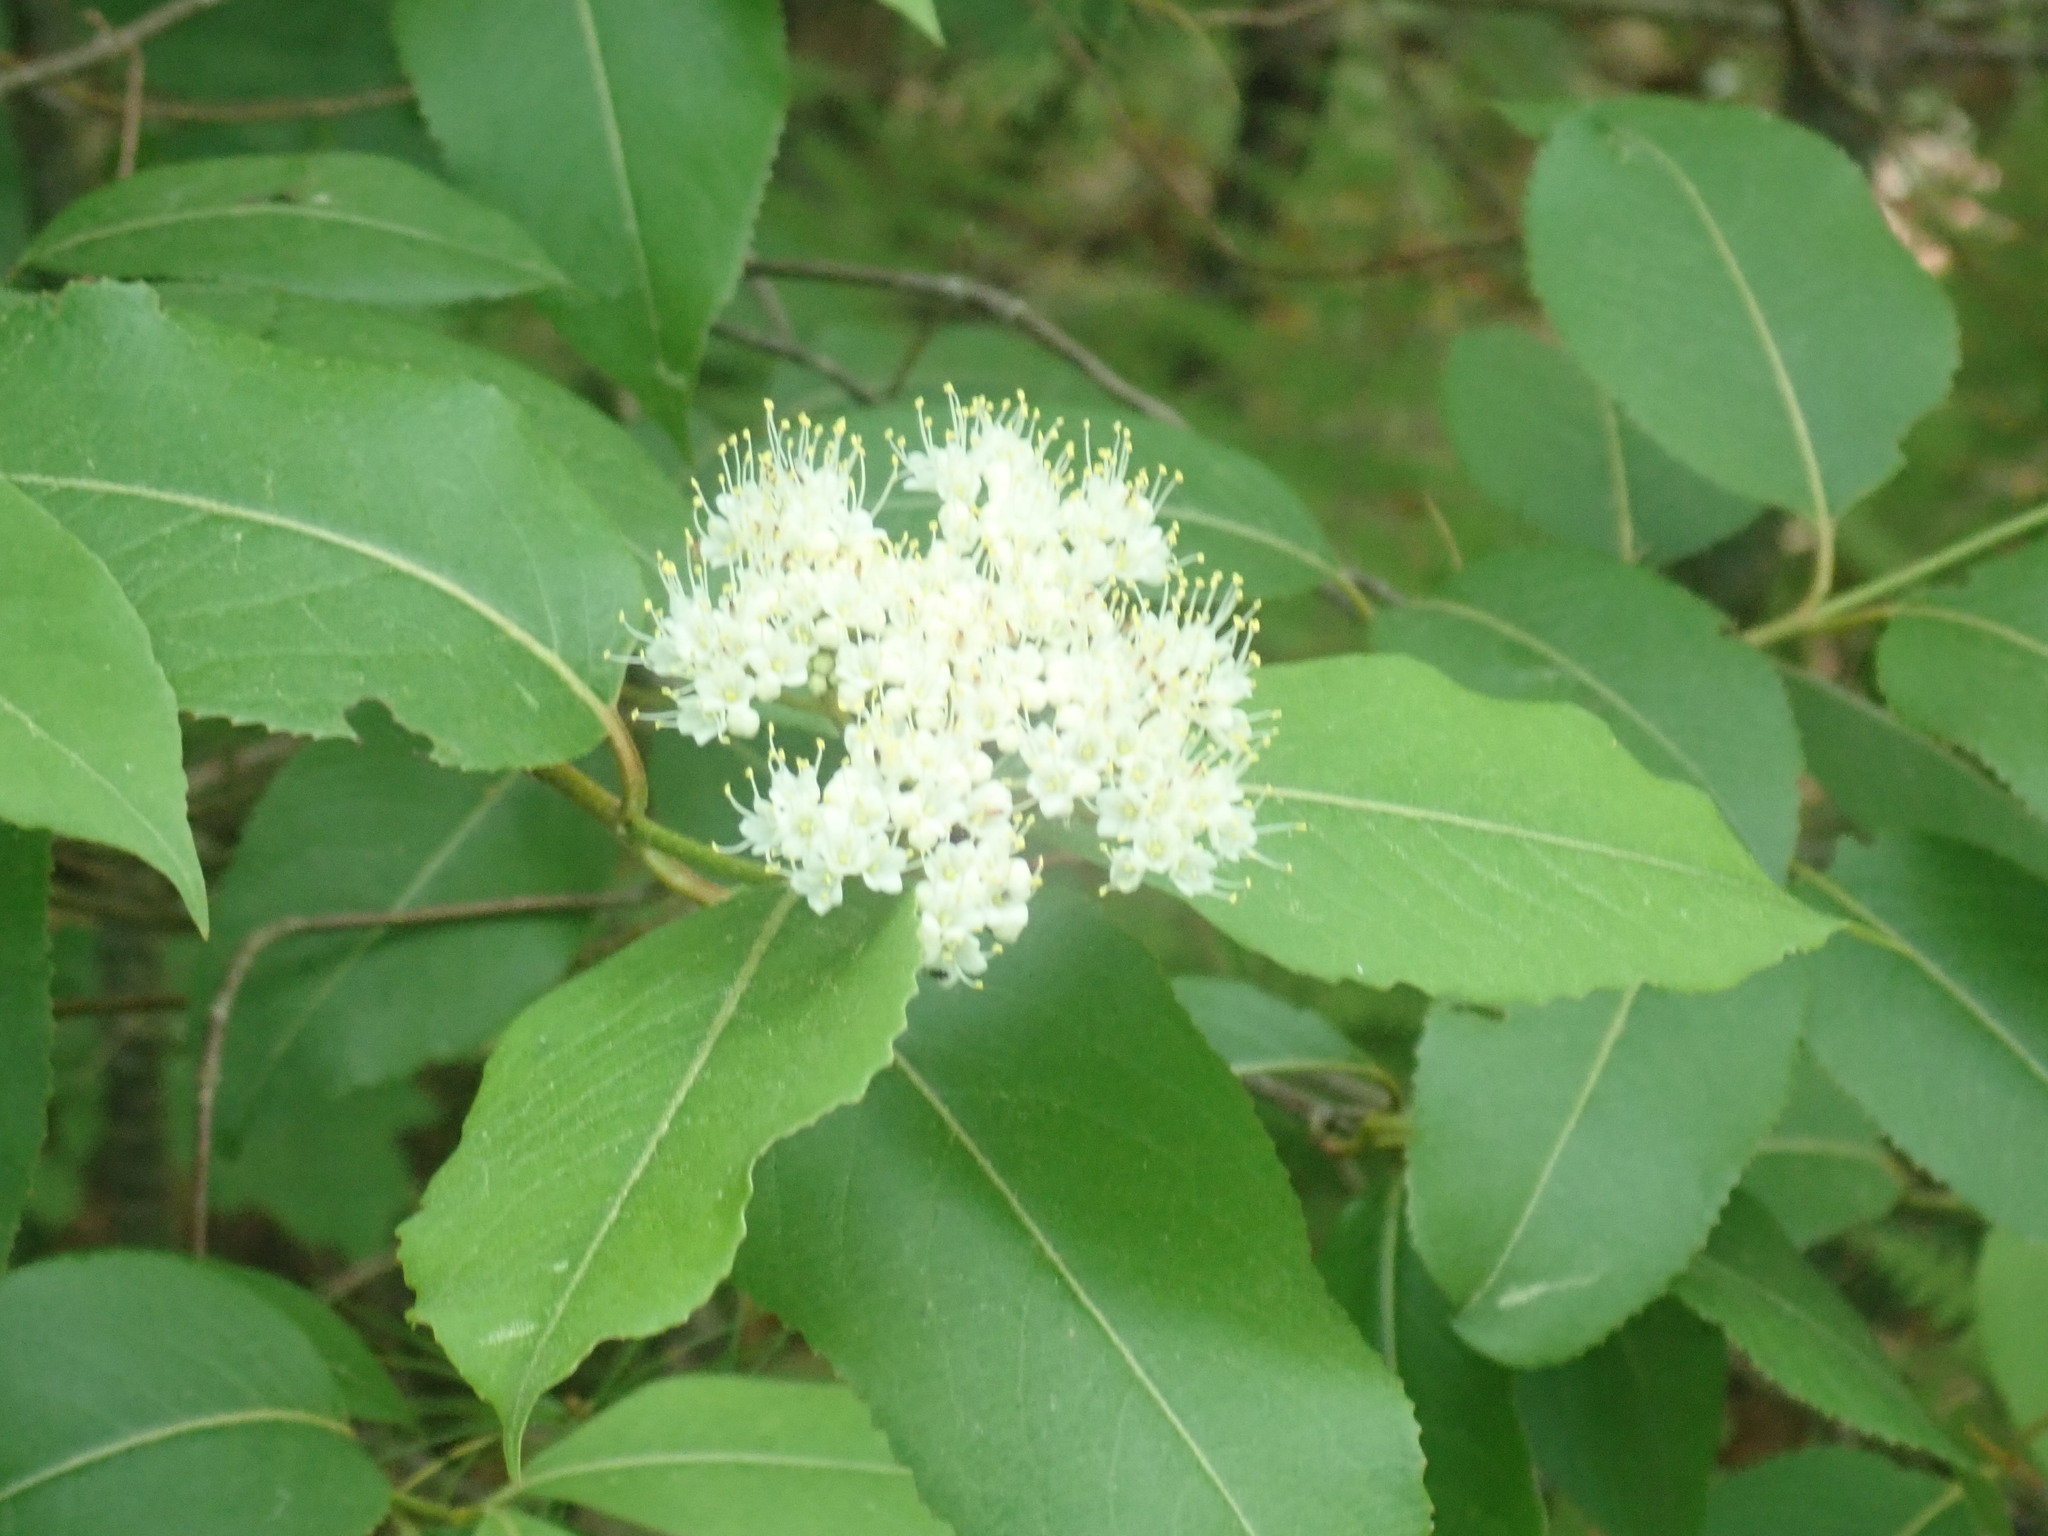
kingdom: Plantae
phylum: Tracheophyta
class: Magnoliopsida
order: Dipsacales
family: Viburnaceae
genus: Viburnum
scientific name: Viburnum cassinoides
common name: Swamp haw
